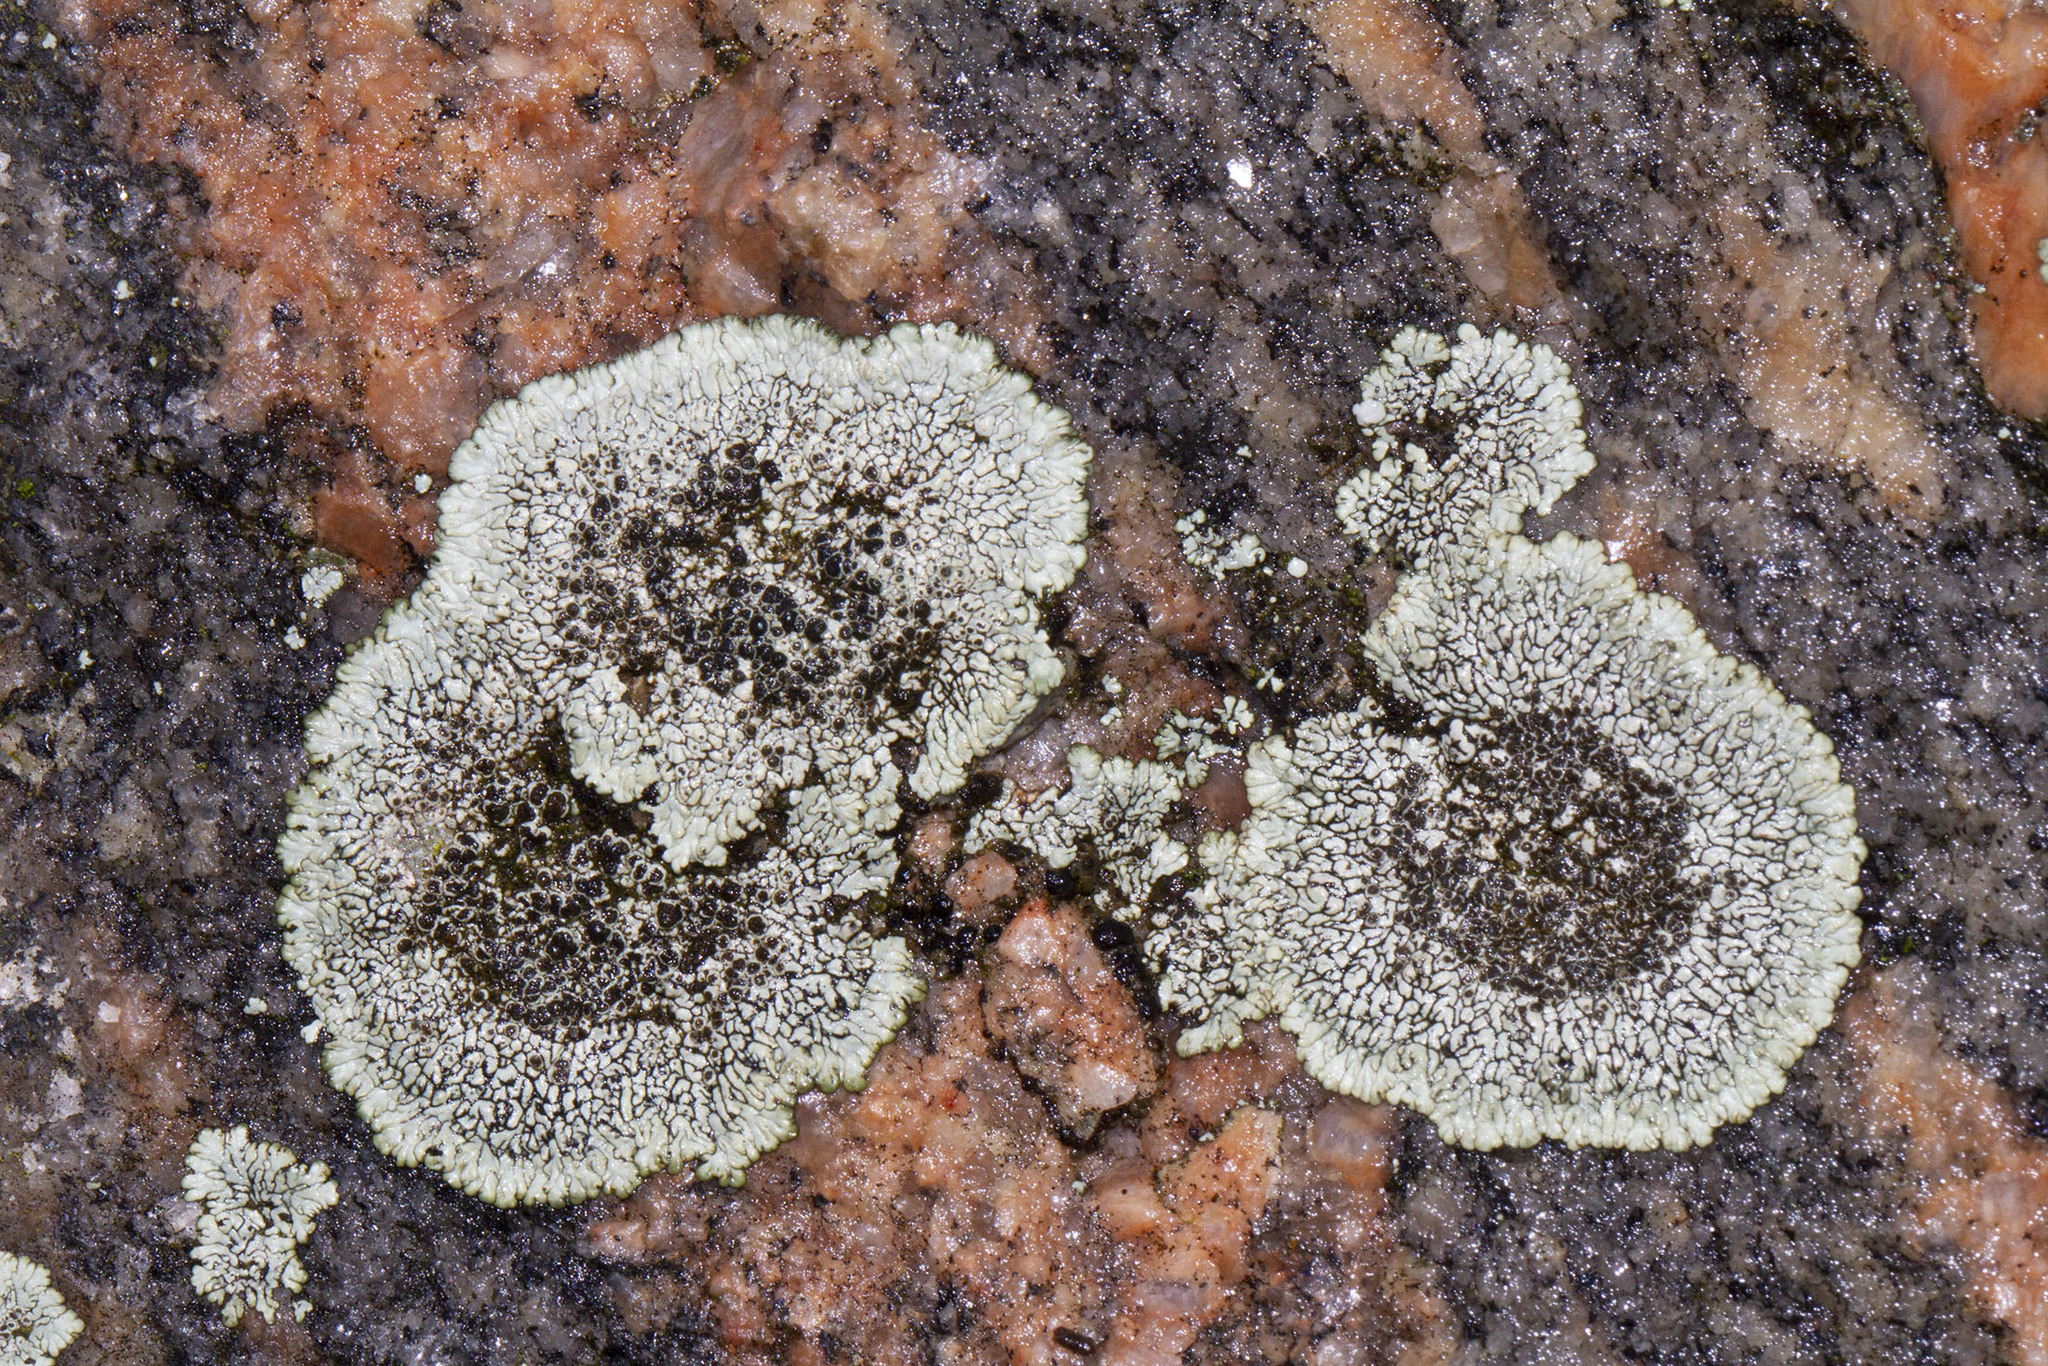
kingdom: Fungi
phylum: Ascomycota
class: Lecanoromycetes
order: Caliciales
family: Caliciaceae
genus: Dimelaena
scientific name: Dimelaena oreina
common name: Golden moonglow lichen
